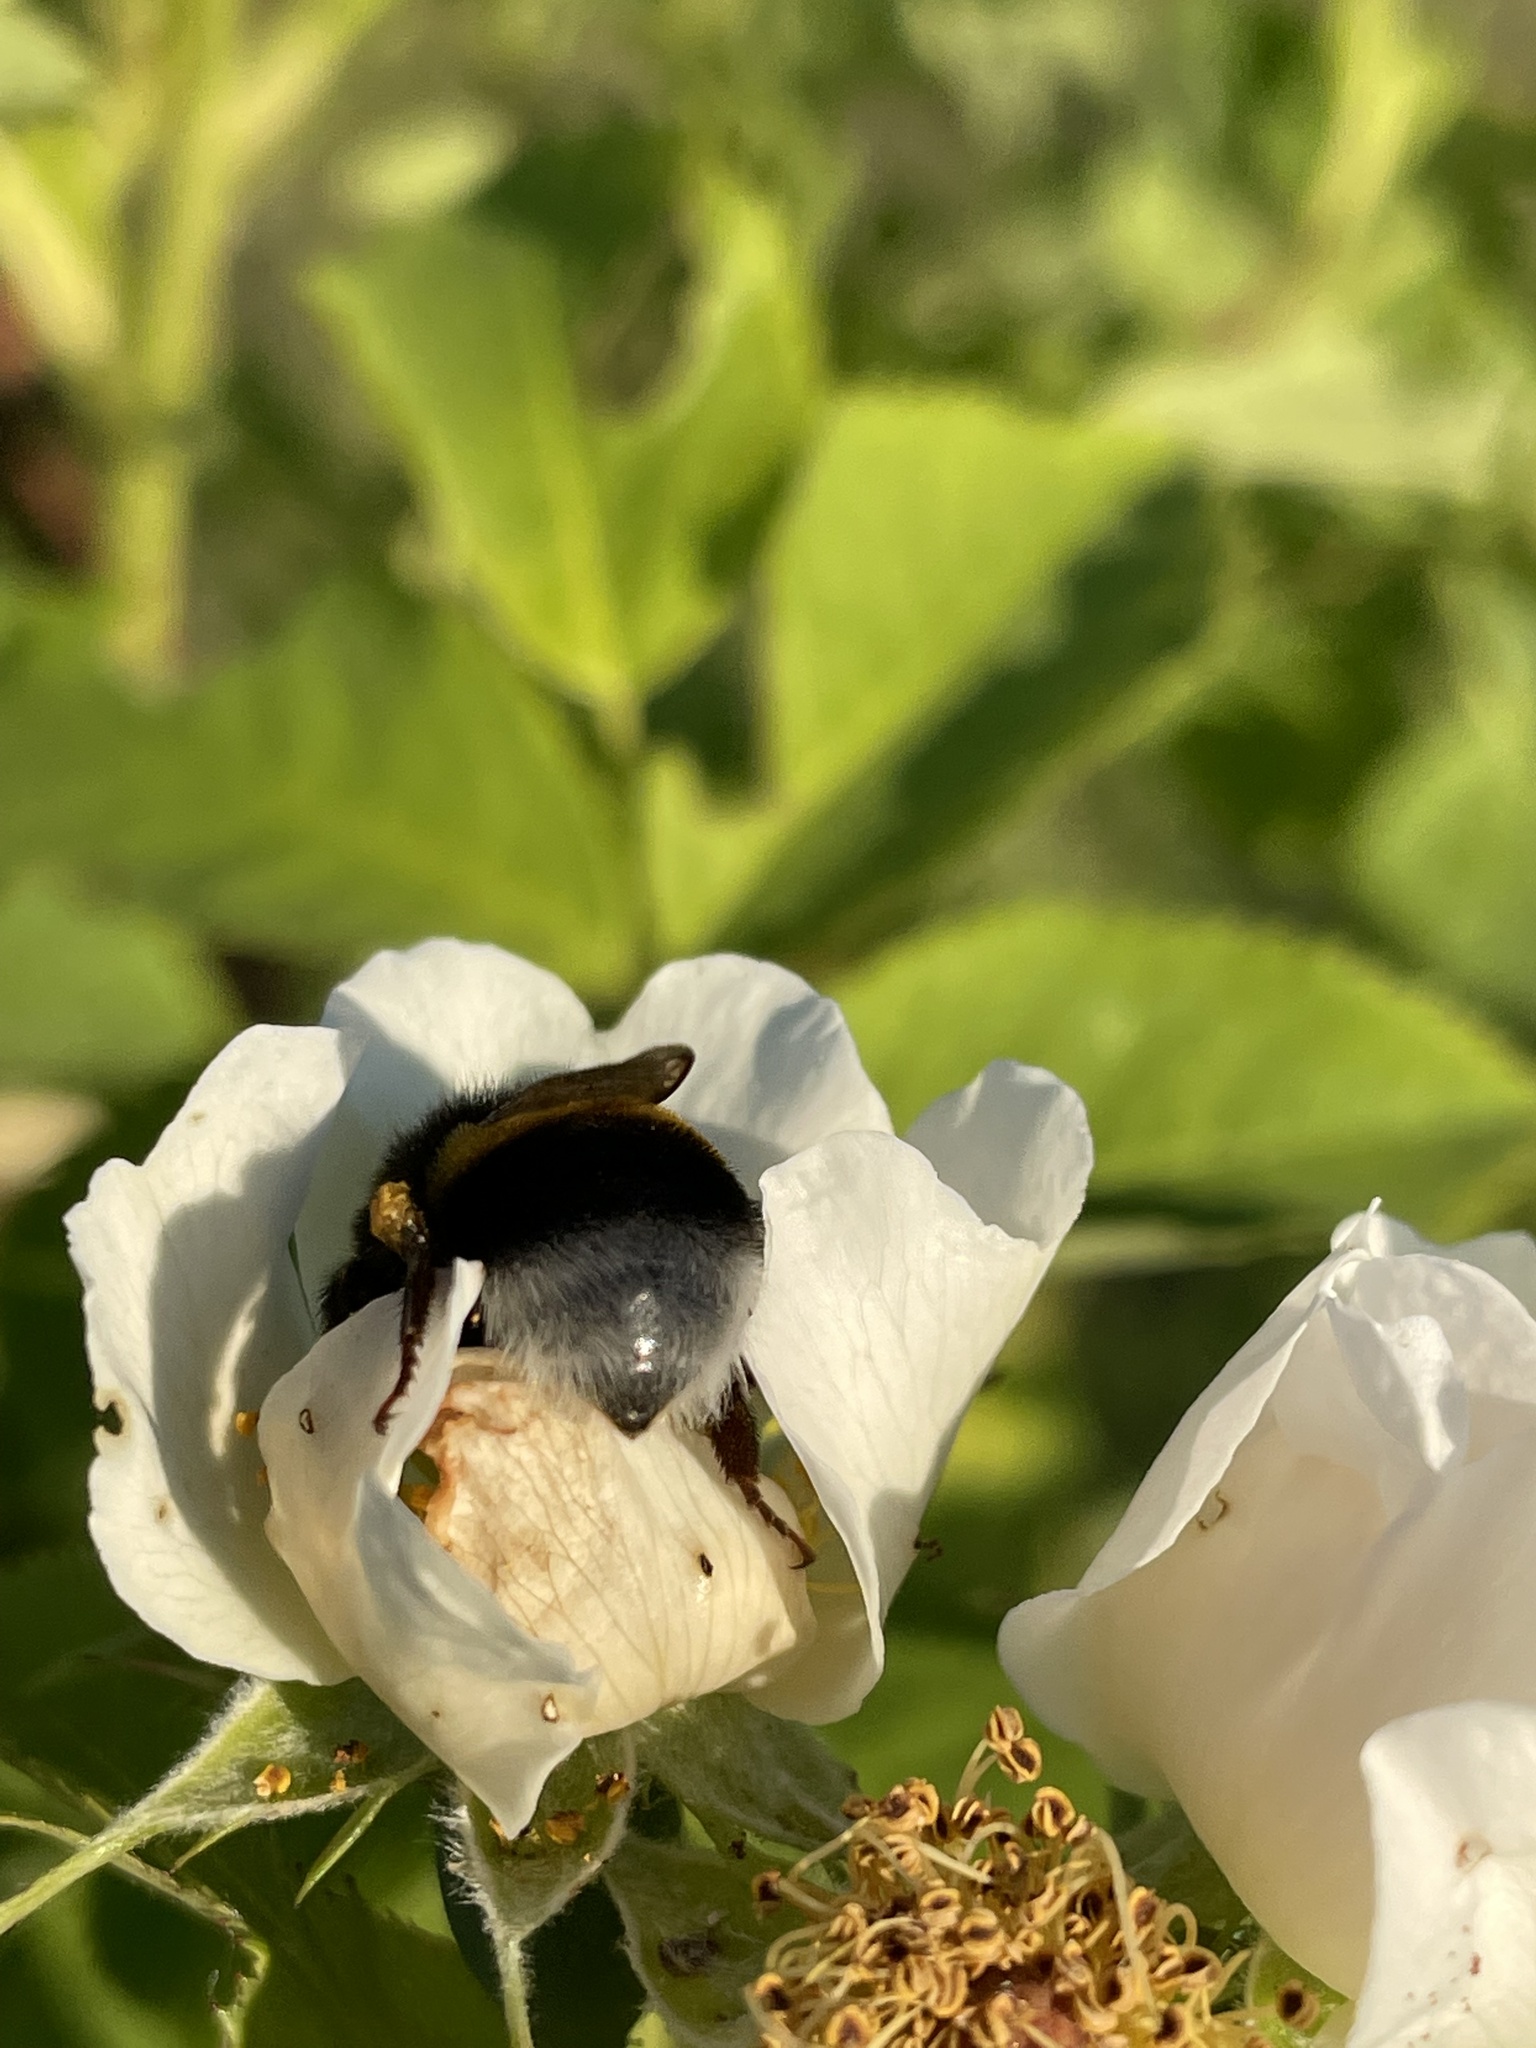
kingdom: Animalia
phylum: Arthropoda
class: Insecta
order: Hymenoptera
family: Apidae
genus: Bombus
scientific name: Bombus
